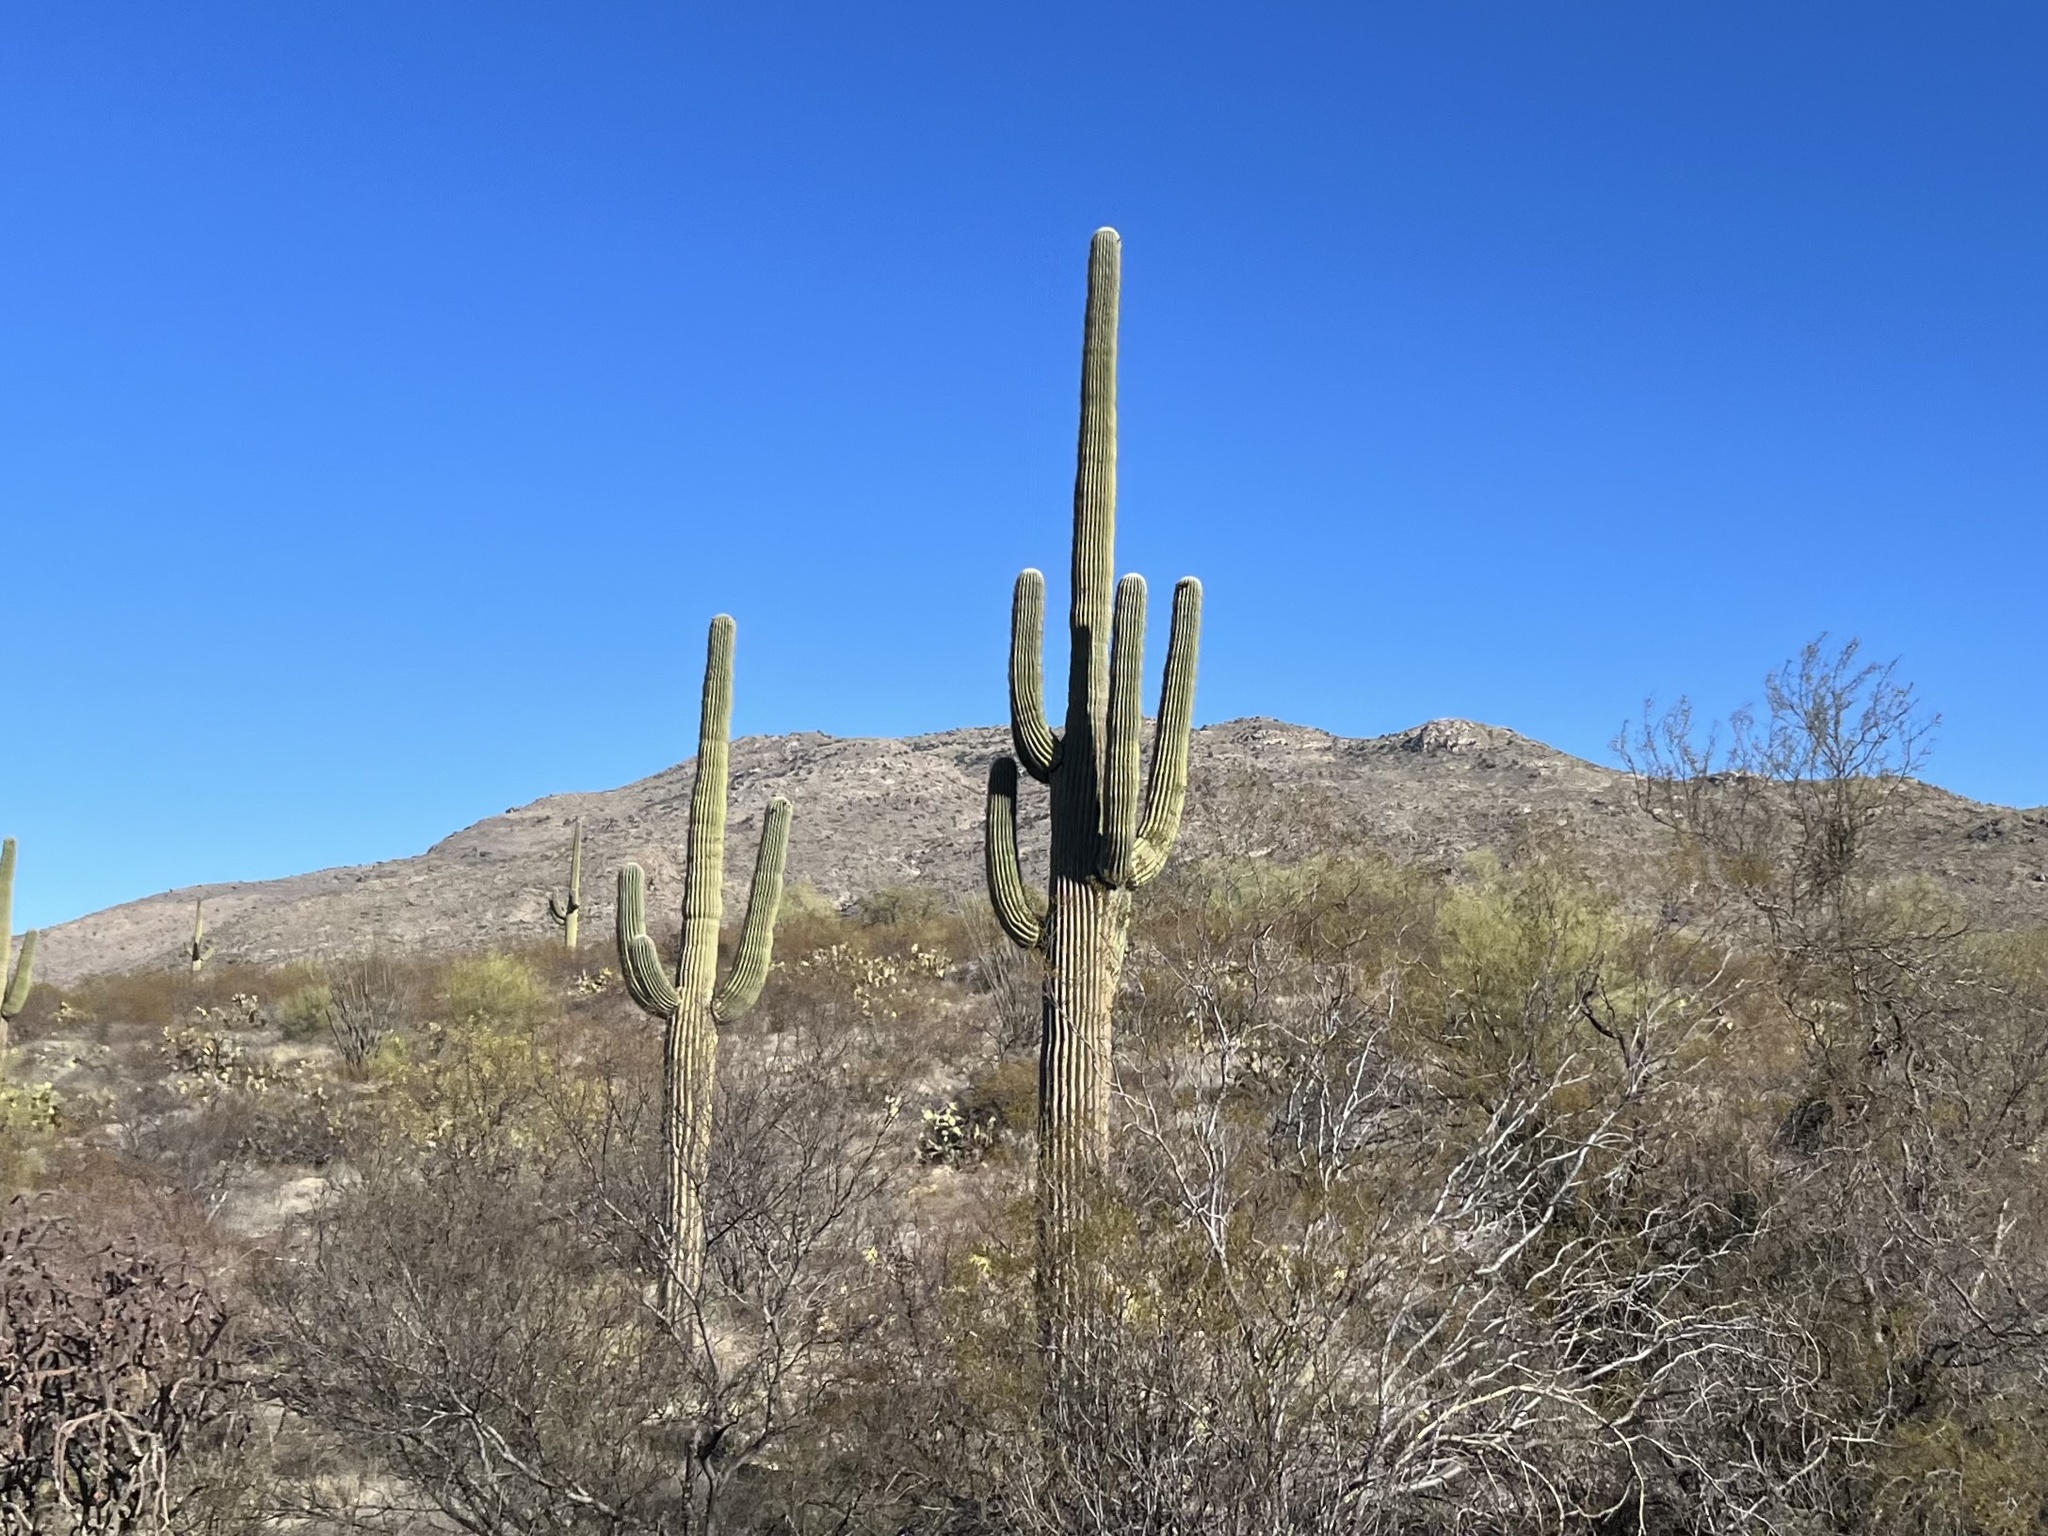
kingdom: Plantae
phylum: Tracheophyta
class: Magnoliopsida
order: Caryophyllales
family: Cactaceae
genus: Carnegiea
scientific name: Carnegiea gigantea
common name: Saguaro
